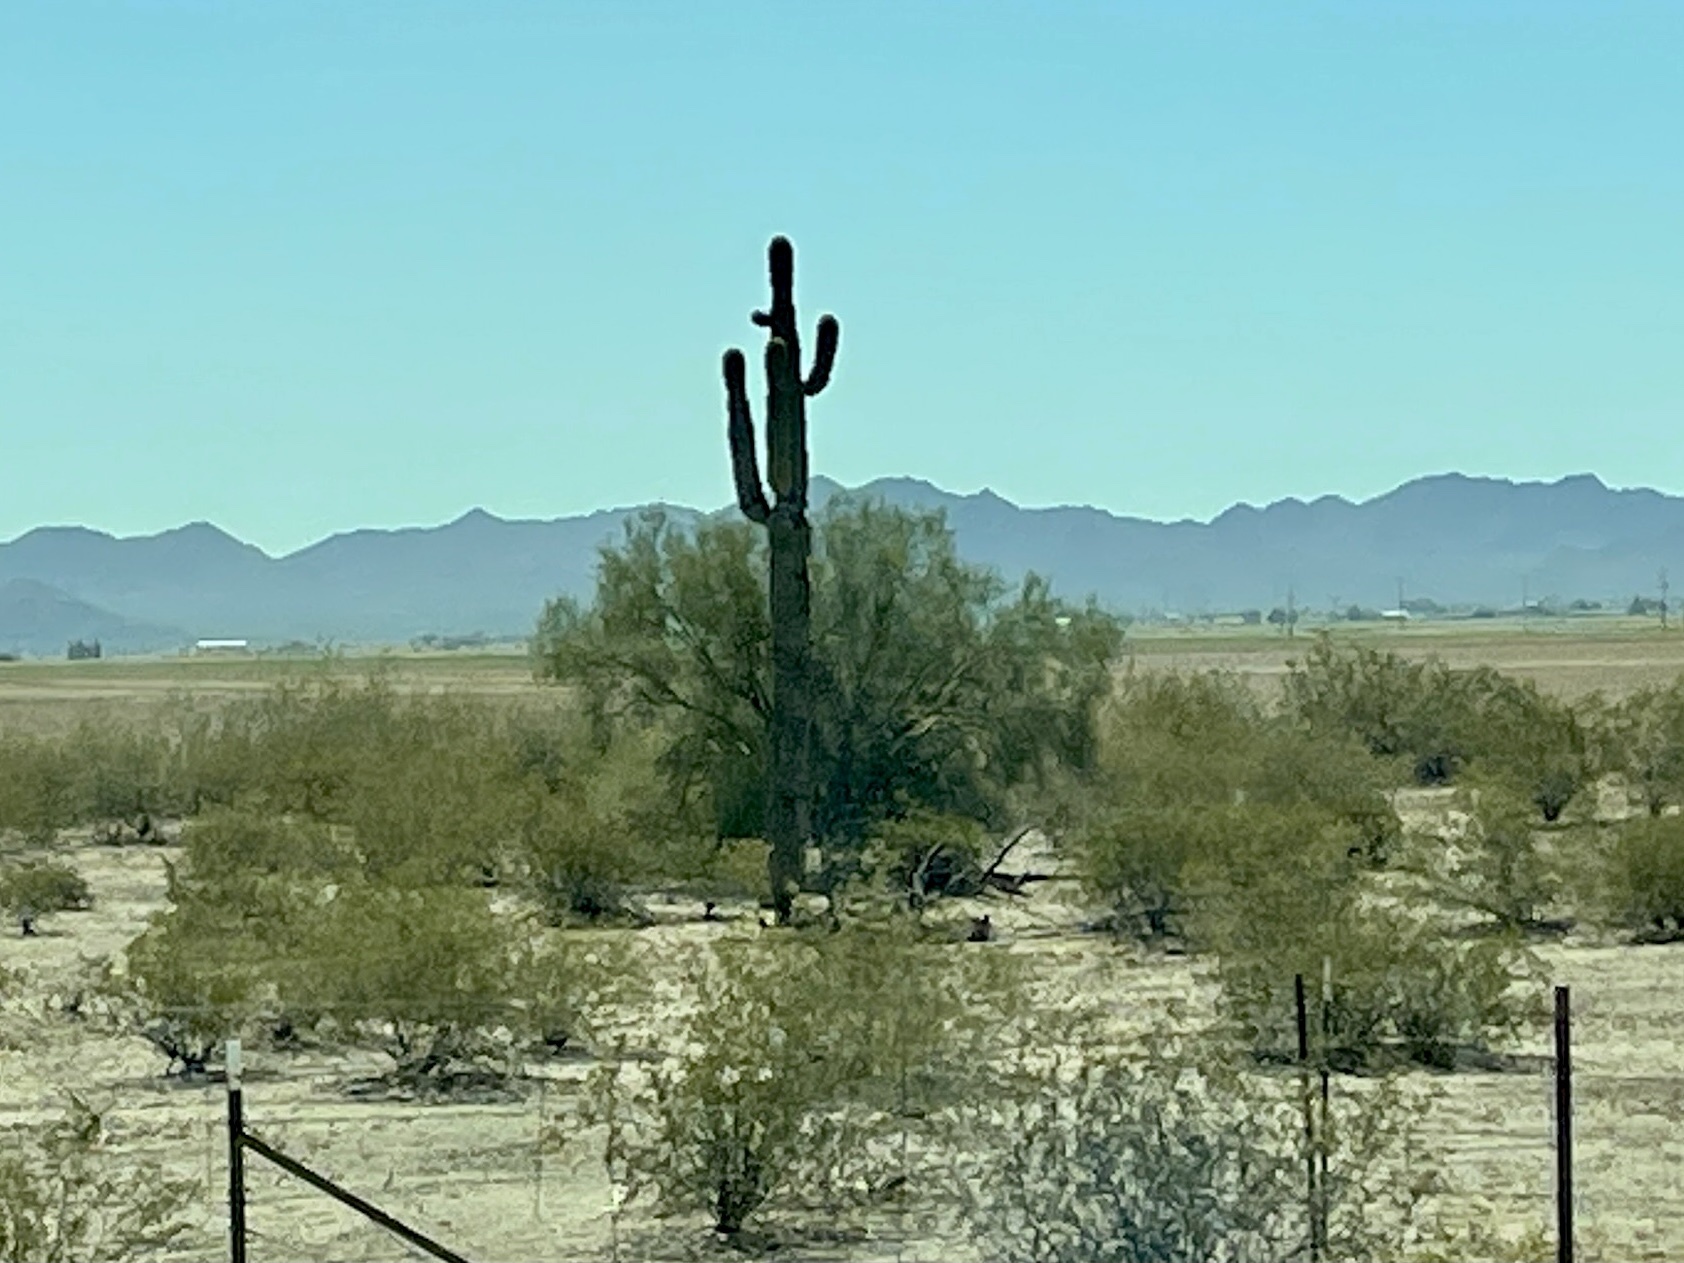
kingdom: Plantae
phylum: Tracheophyta
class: Magnoliopsida
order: Caryophyllales
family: Cactaceae
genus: Carnegiea
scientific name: Carnegiea gigantea
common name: Saguaro
